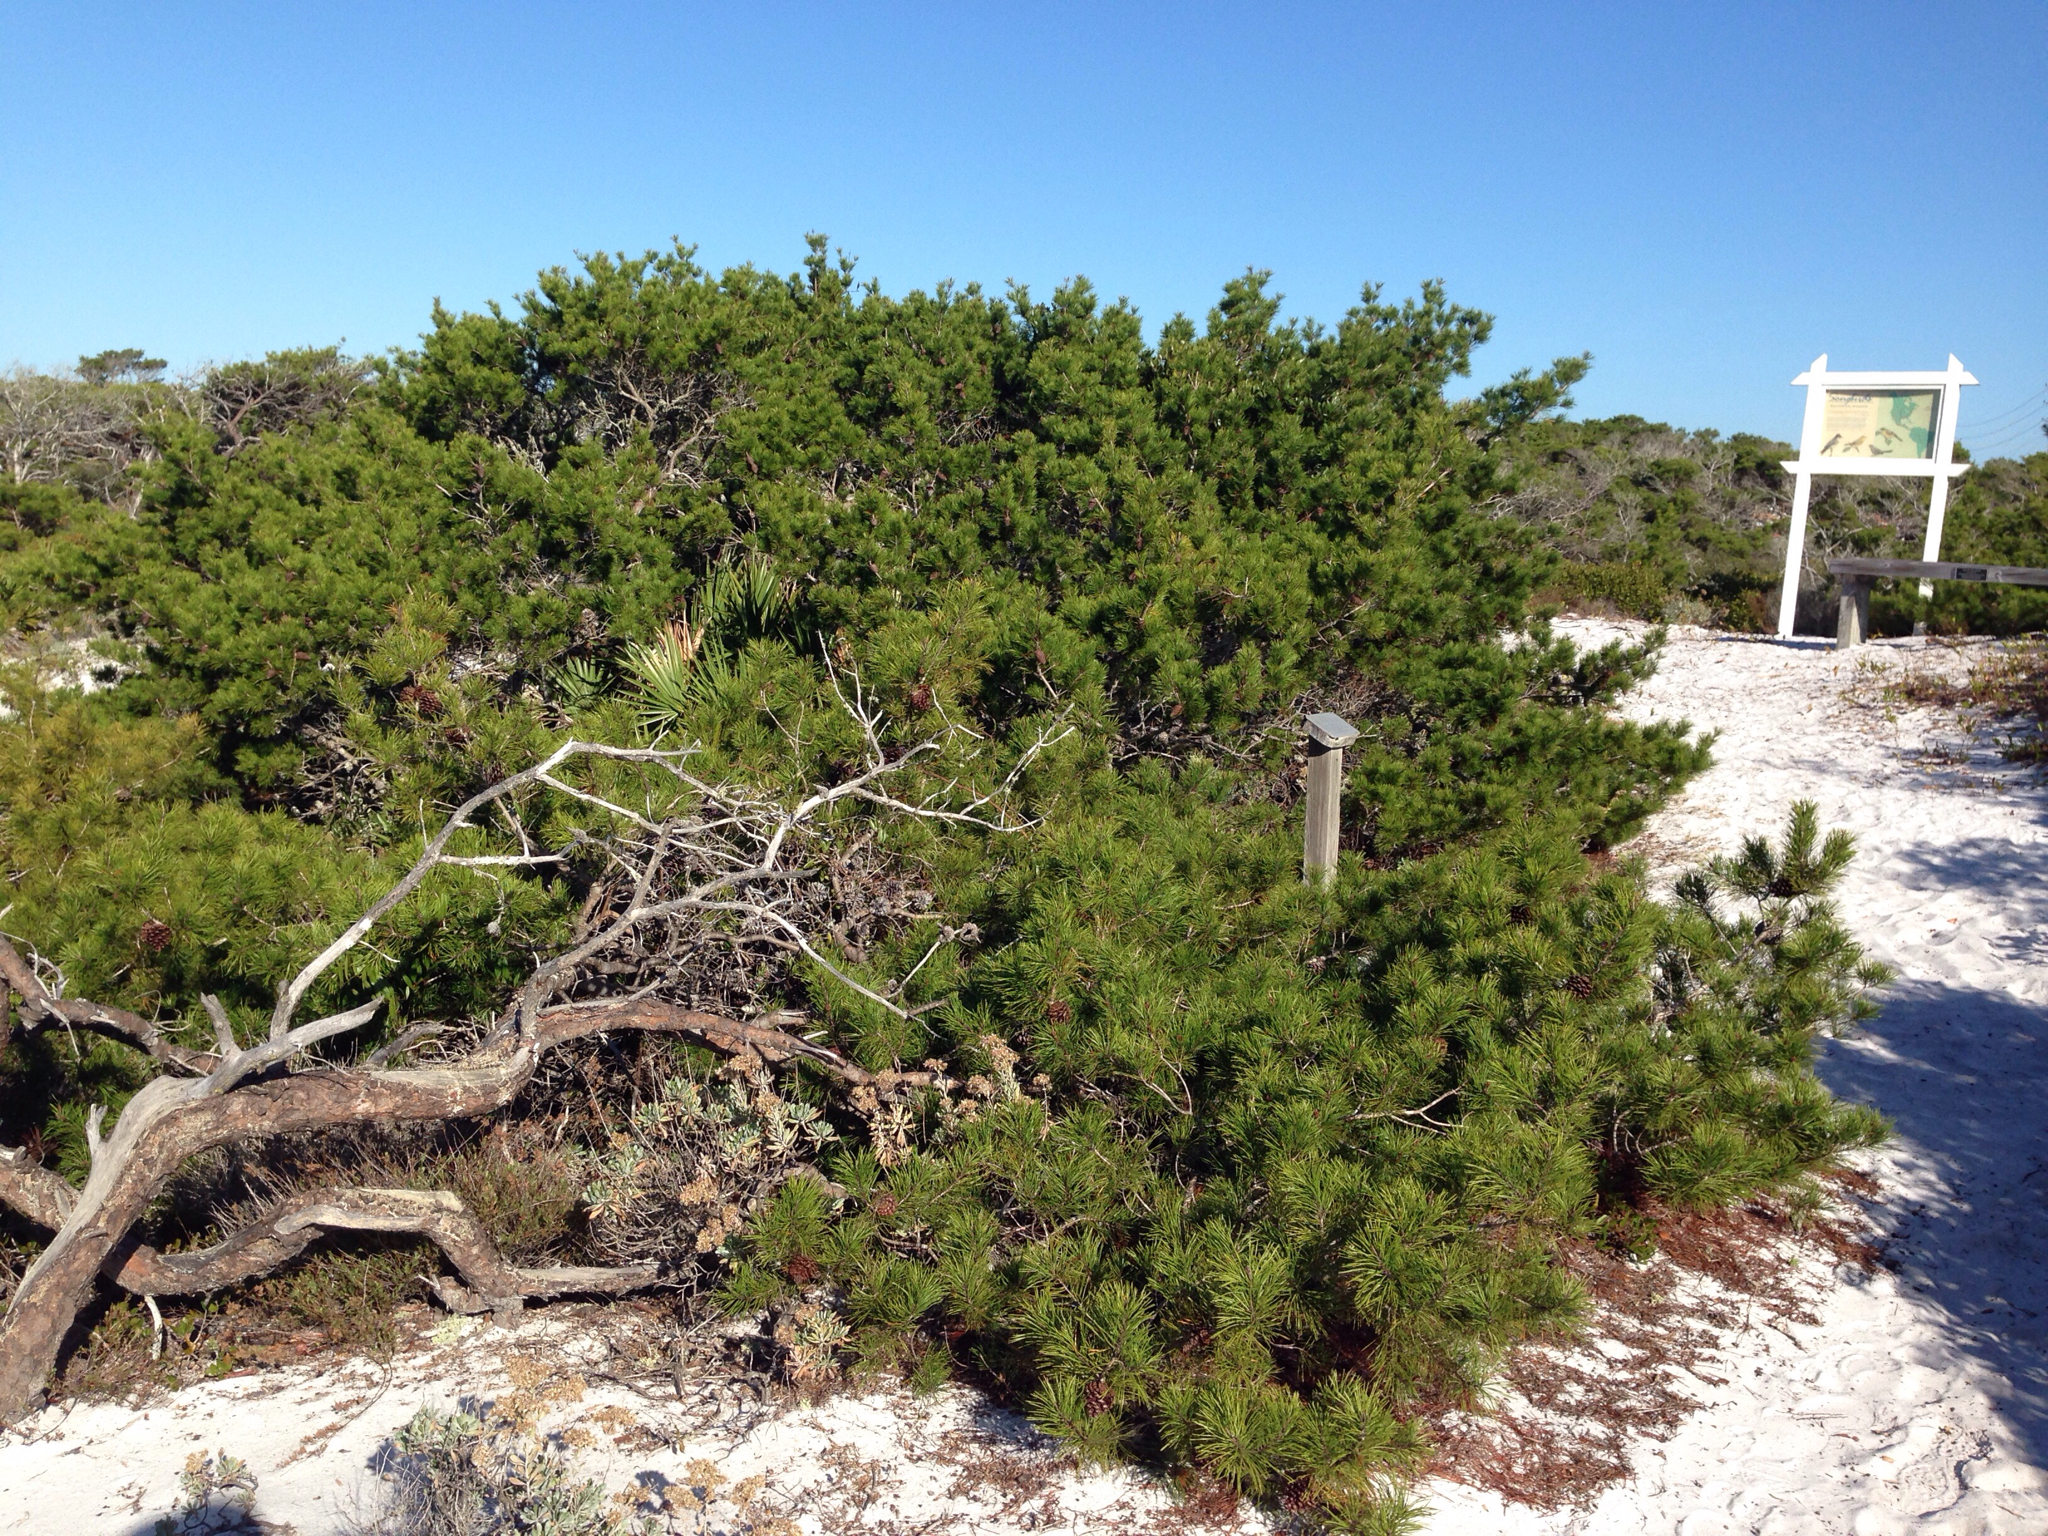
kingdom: Plantae
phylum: Tracheophyta
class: Pinopsida
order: Pinales
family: Pinaceae
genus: Pinus
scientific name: Pinus clausa
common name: Sand pine
